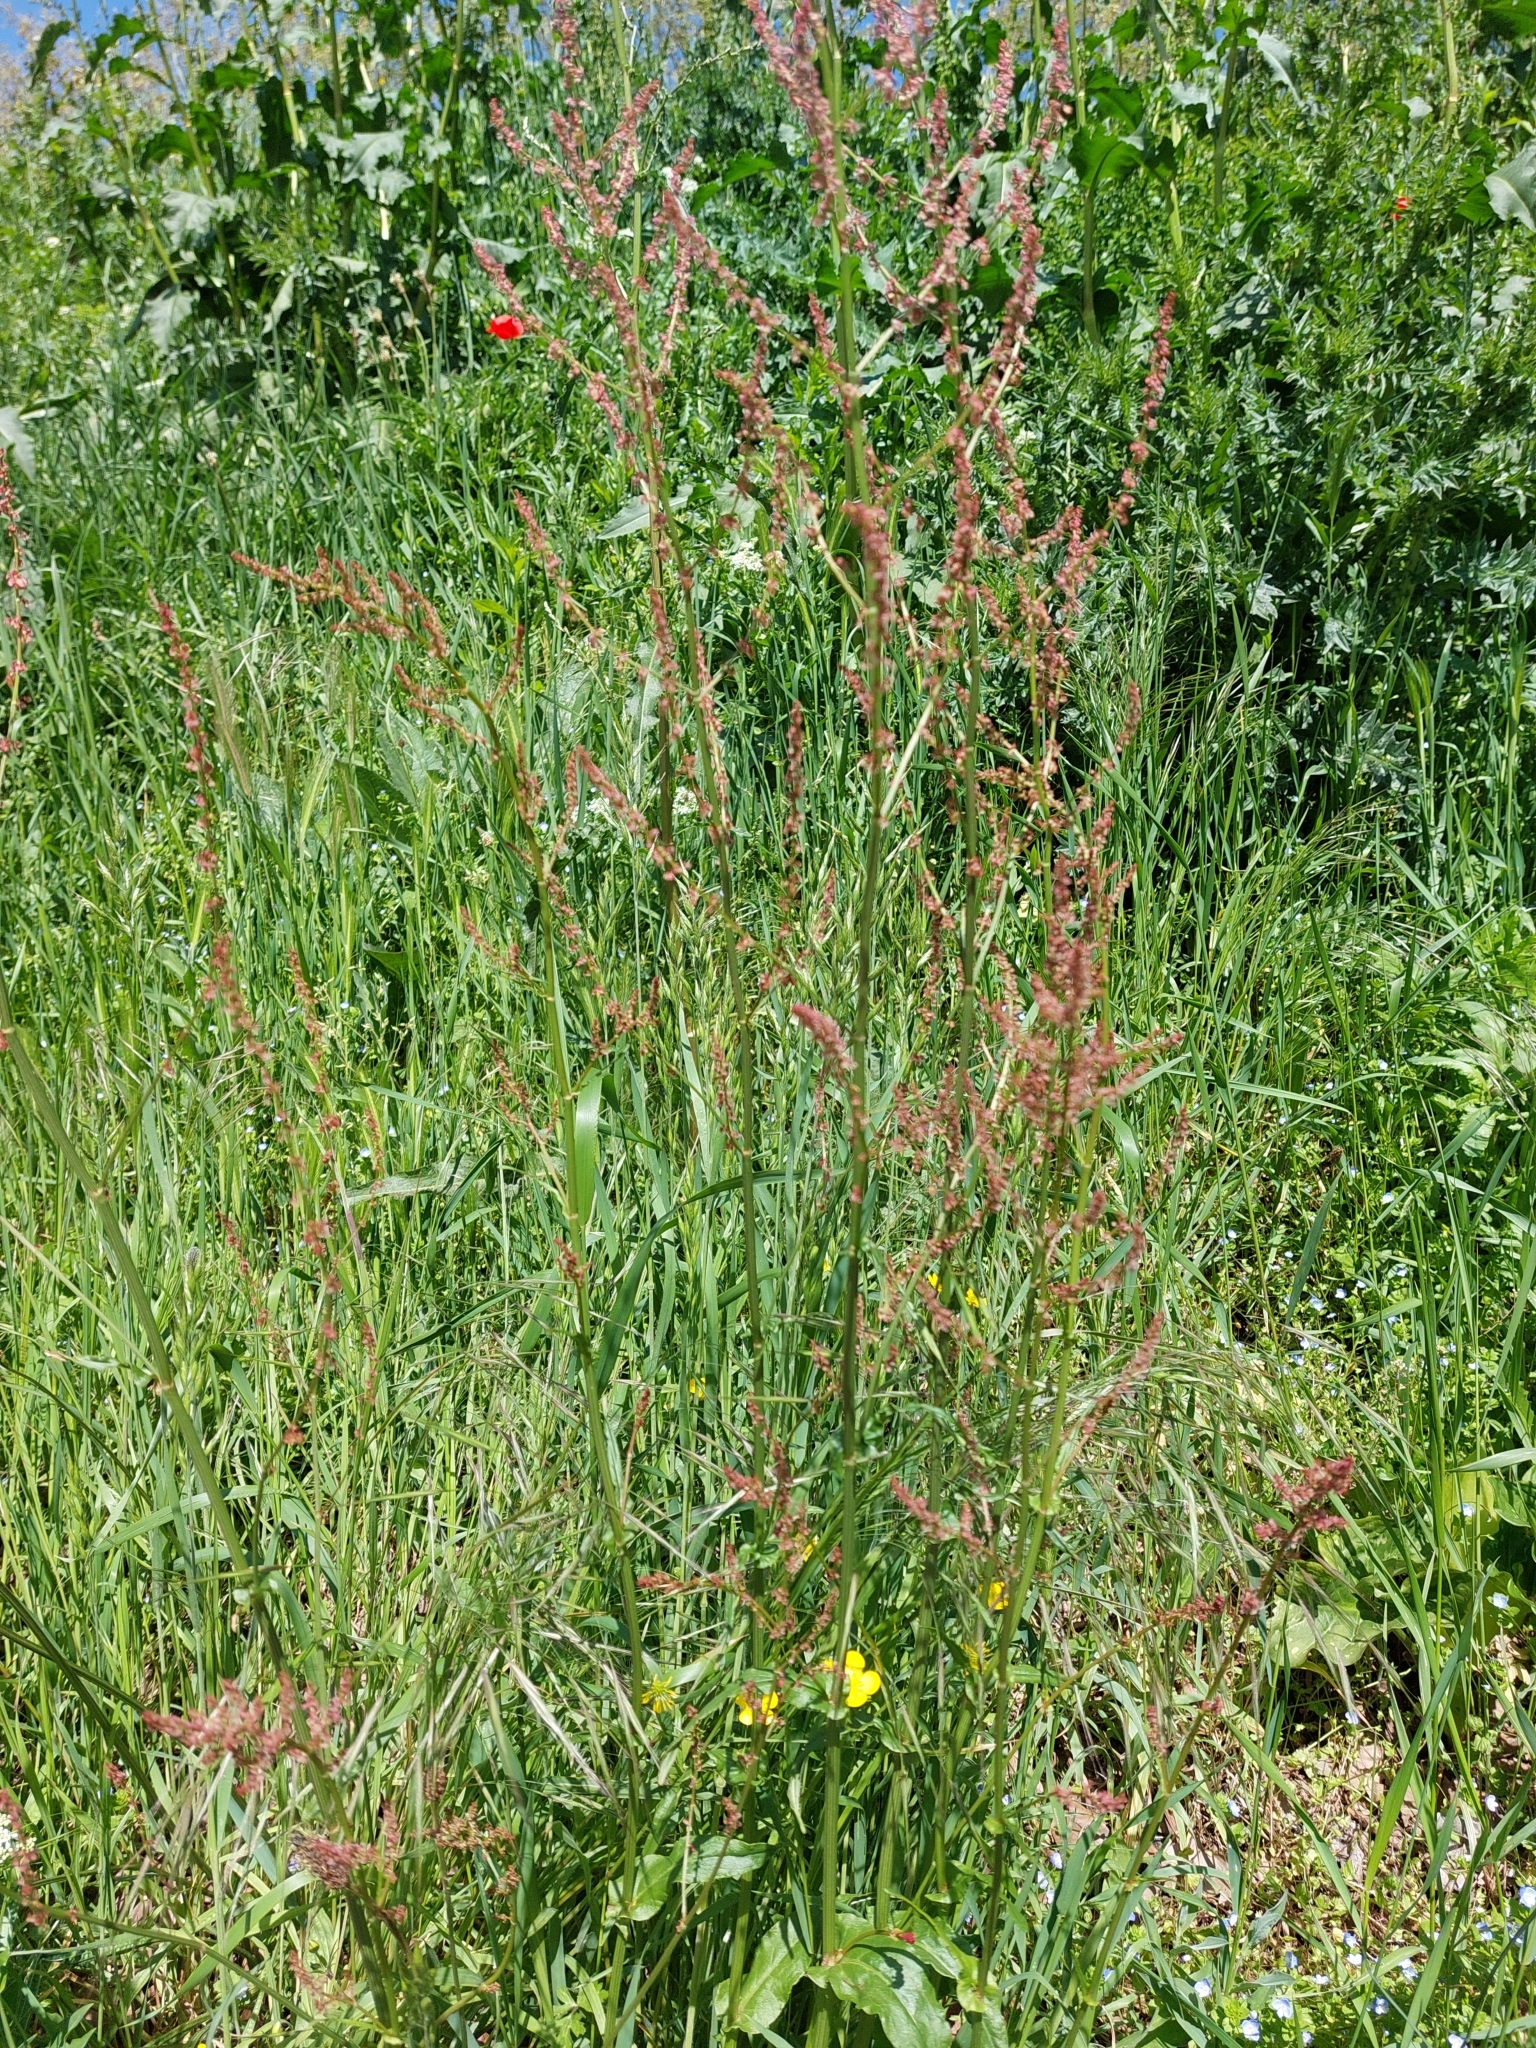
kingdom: Plantae
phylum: Tracheophyta
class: Magnoliopsida
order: Caryophyllales
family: Polygonaceae
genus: Rumex
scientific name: Rumex acetosa
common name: Garden sorrel
